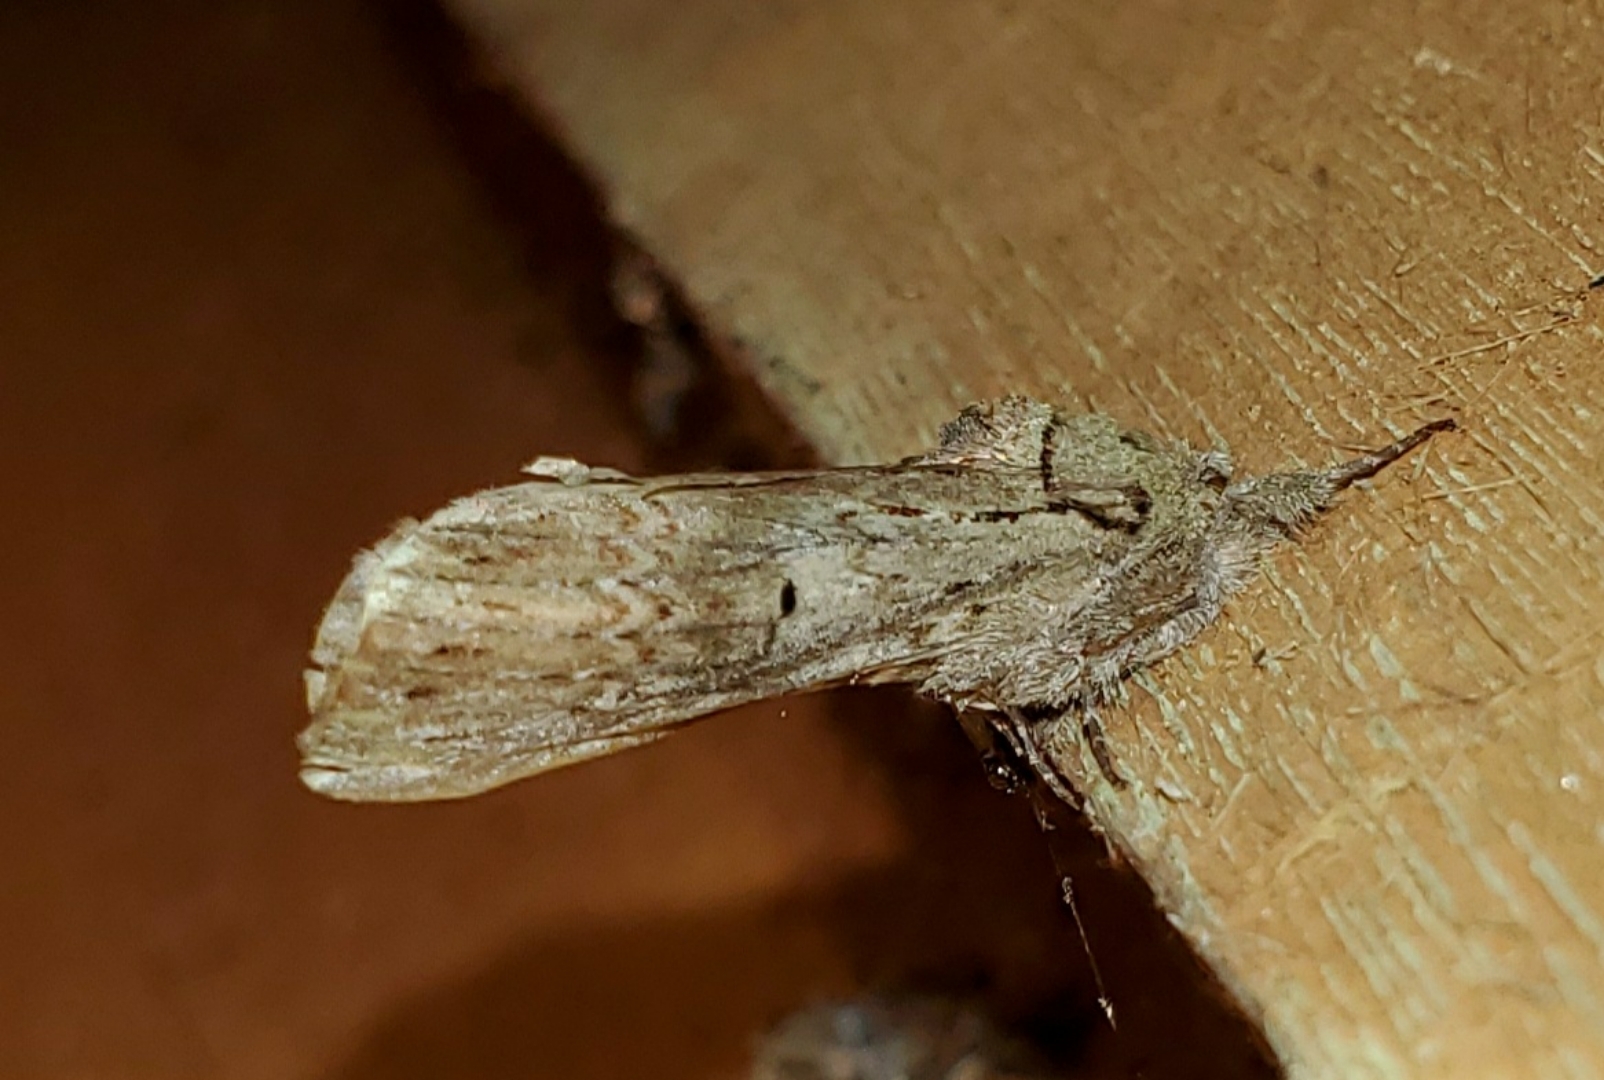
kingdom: Animalia
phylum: Arthropoda
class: Insecta
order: Lepidoptera
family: Notodontidae
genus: Schizura
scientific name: Schizura
